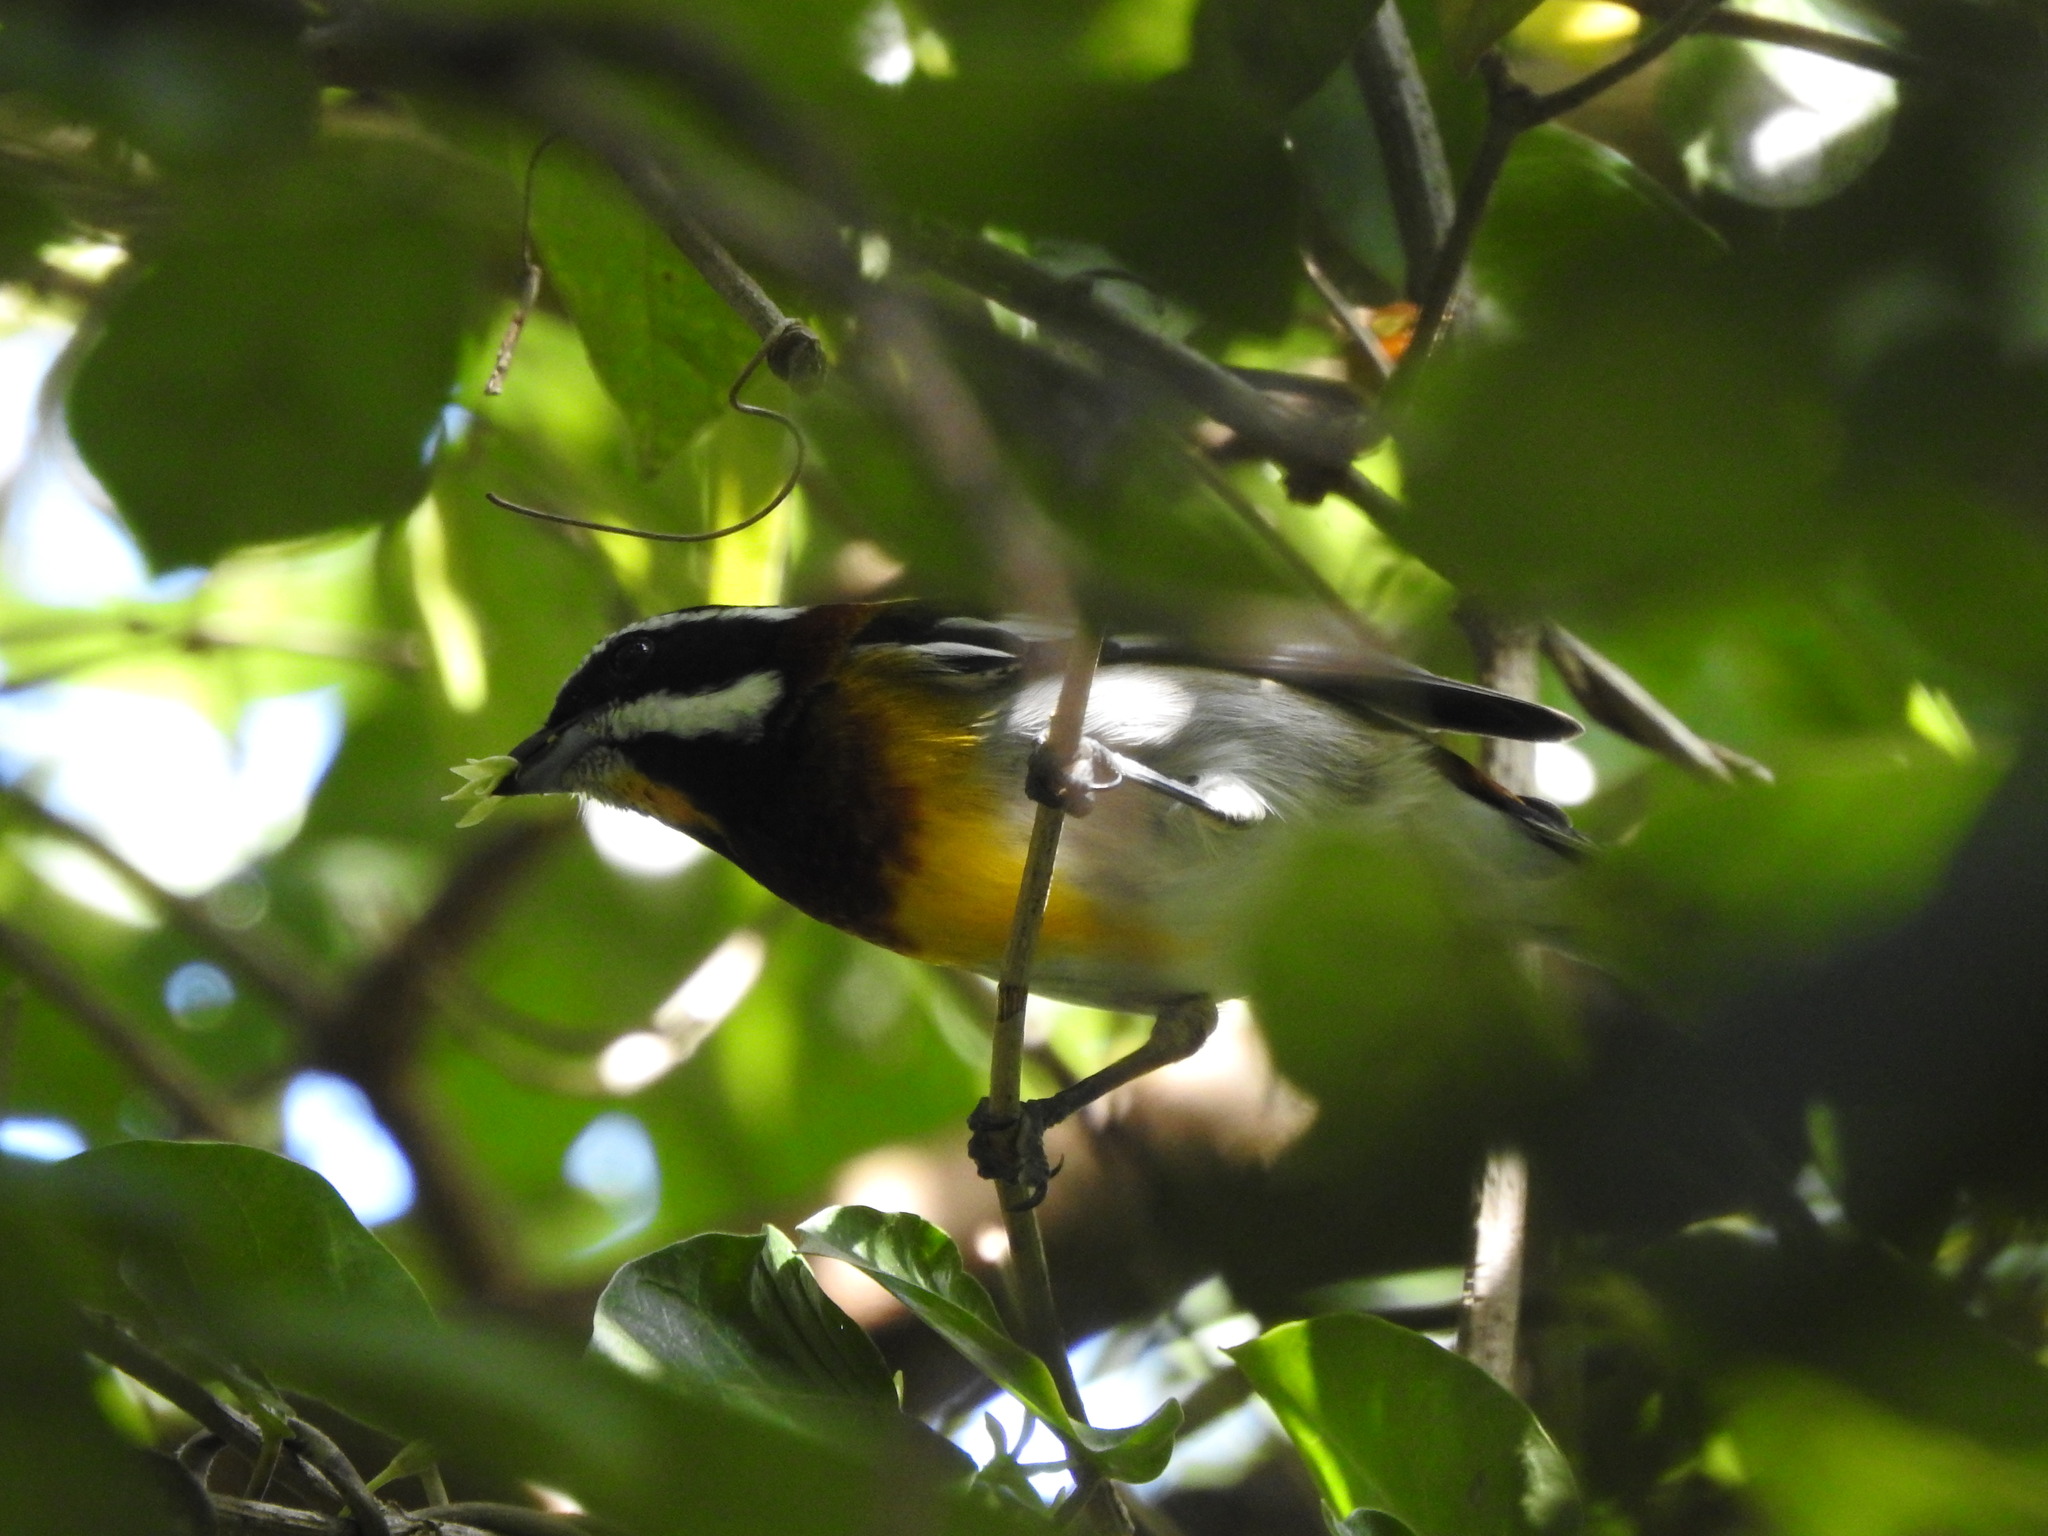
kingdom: Animalia
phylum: Chordata
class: Aves
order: Passeriformes
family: Spindalidae
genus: Spindalis
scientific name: Spindalis zena
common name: Western spindalis
